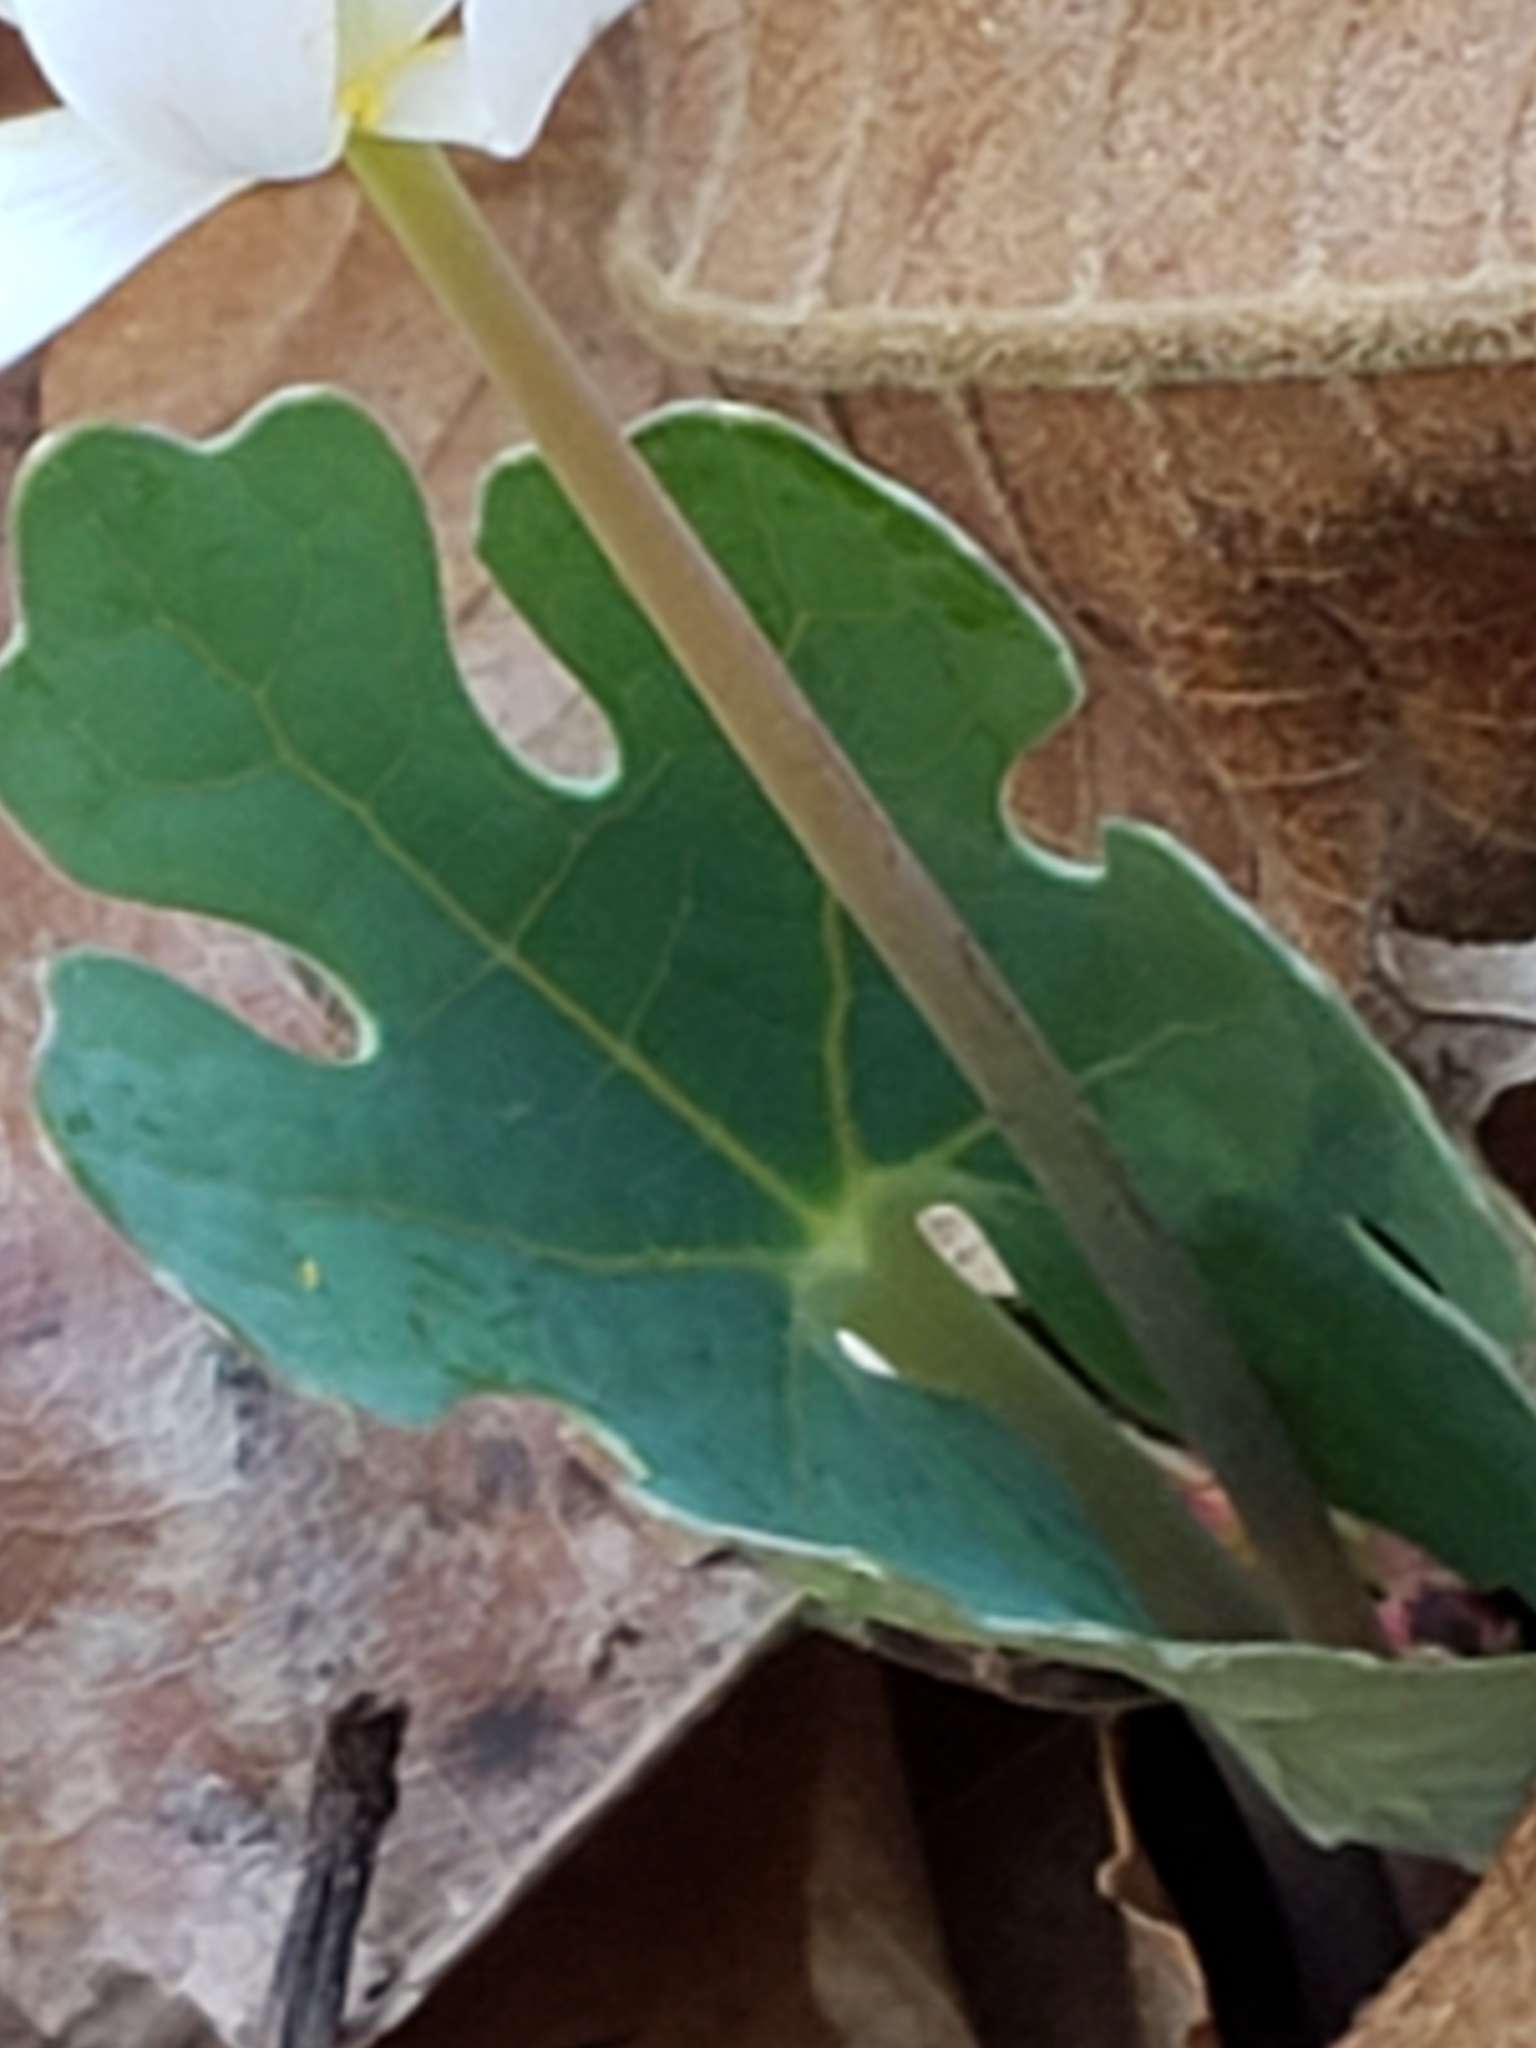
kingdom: Plantae
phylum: Tracheophyta
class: Magnoliopsida
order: Ranunculales
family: Papaveraceae
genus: Sanguinaria
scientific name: Sanguinaria canadensis
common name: Bloodroot
